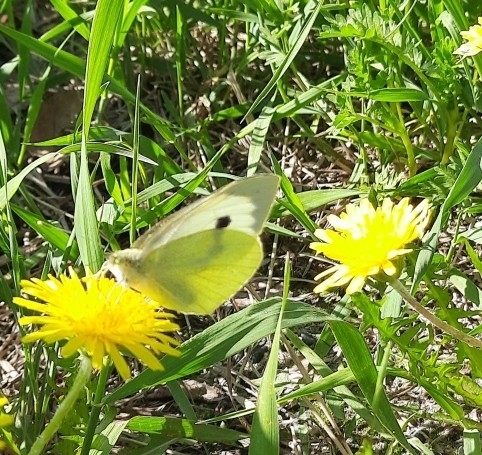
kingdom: Animalia
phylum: Arthropoda
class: Insecta
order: Lepidoptera
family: Pieridae
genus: Pieris
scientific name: Pieris brassicae
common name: Large white
